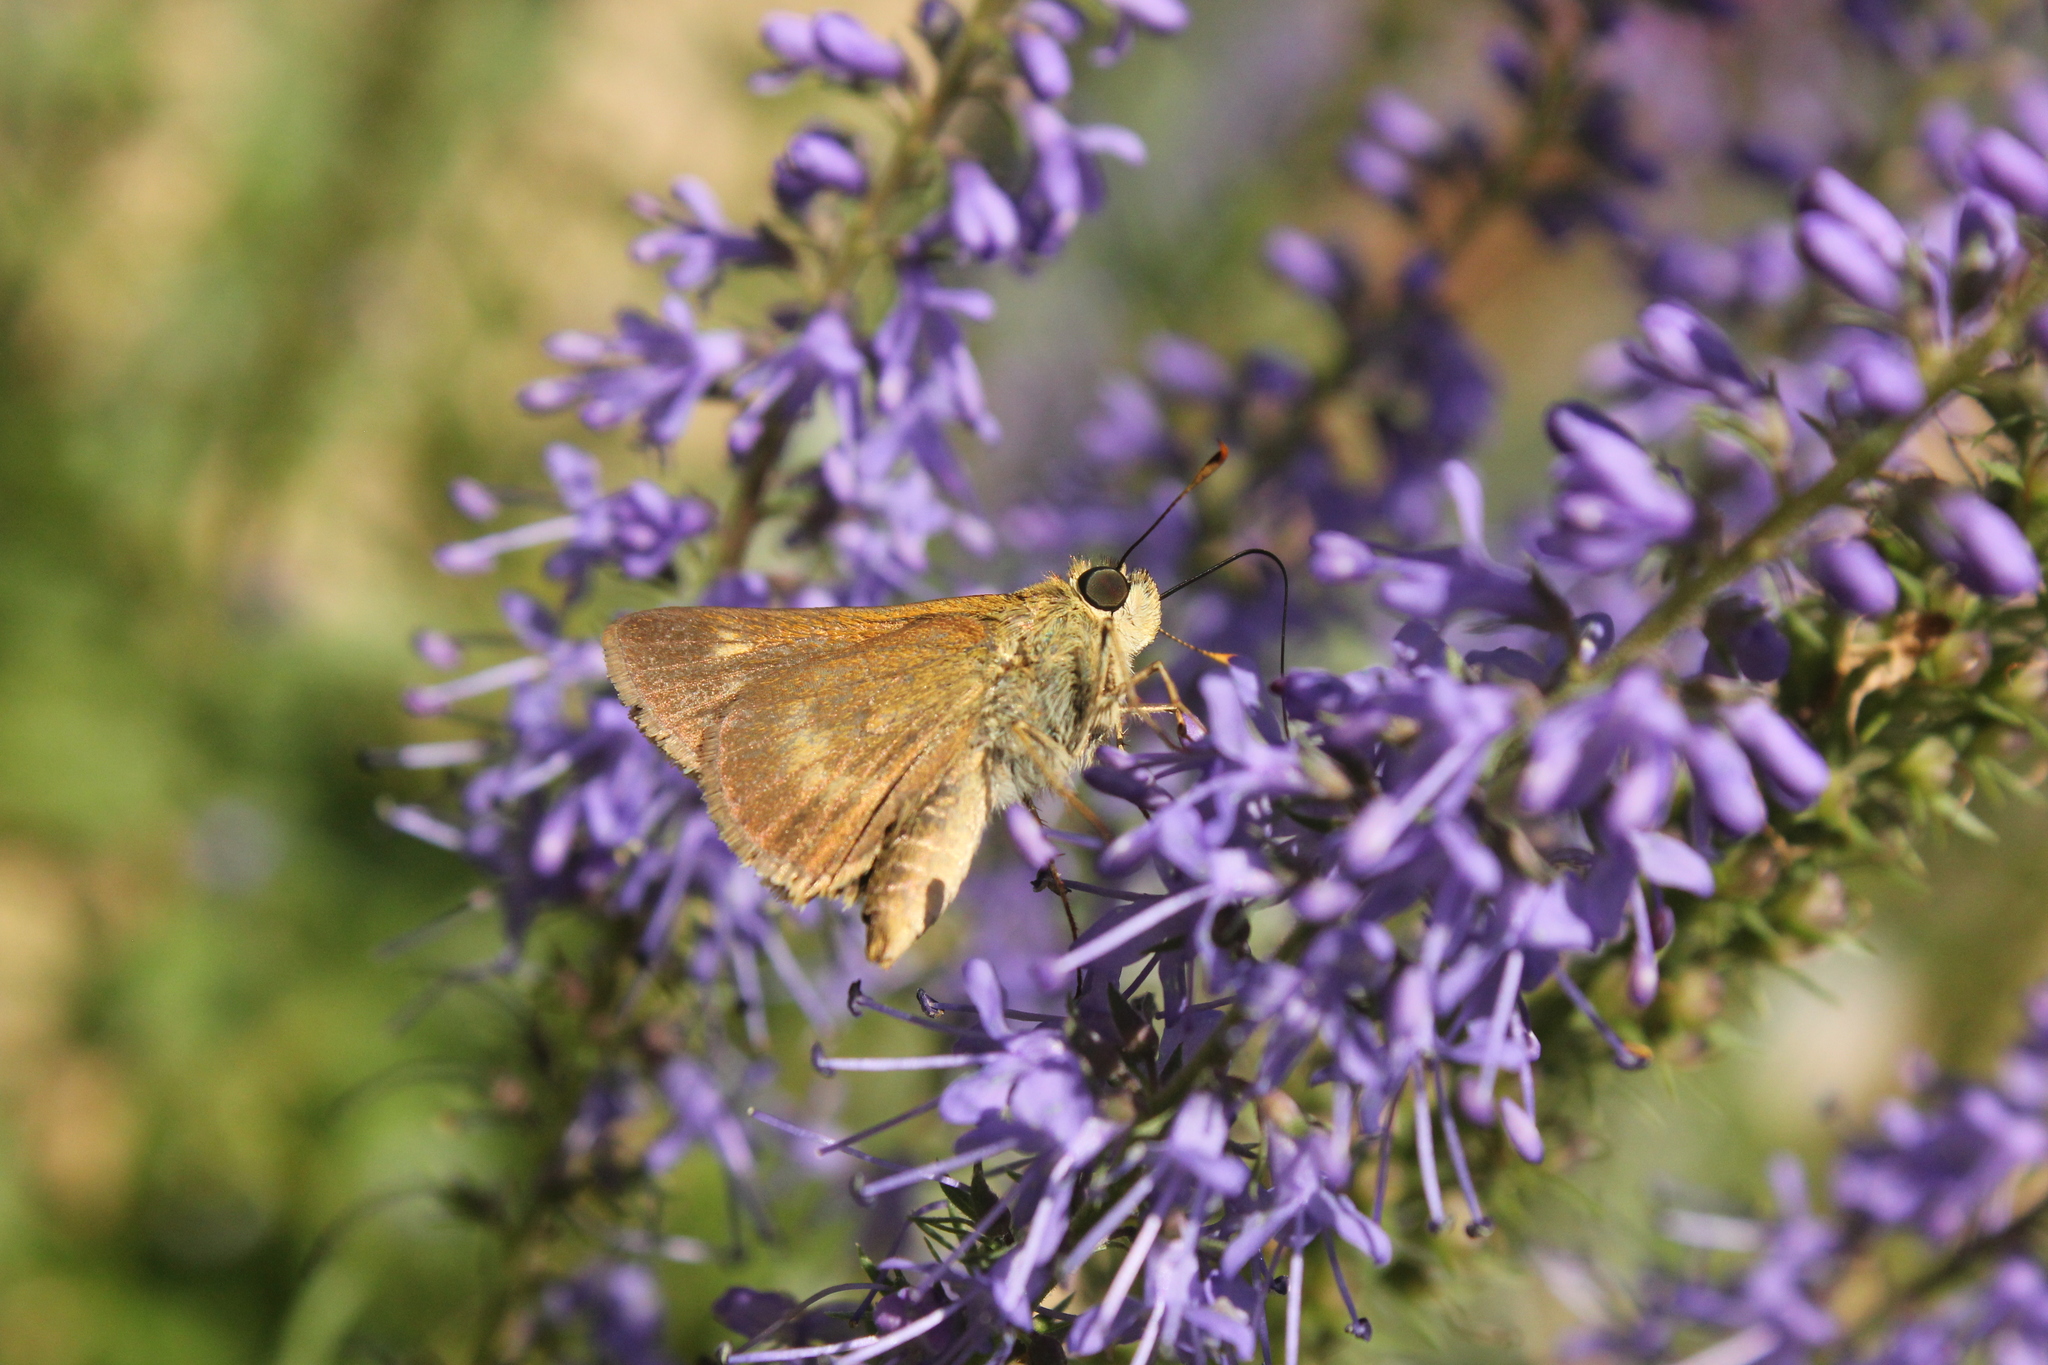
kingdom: Animalia
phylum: Arthropoda
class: Insecta
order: Lepidoptera
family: Hesperiidae
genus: Polites
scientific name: Polites egeremet
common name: Northern broken-dash
